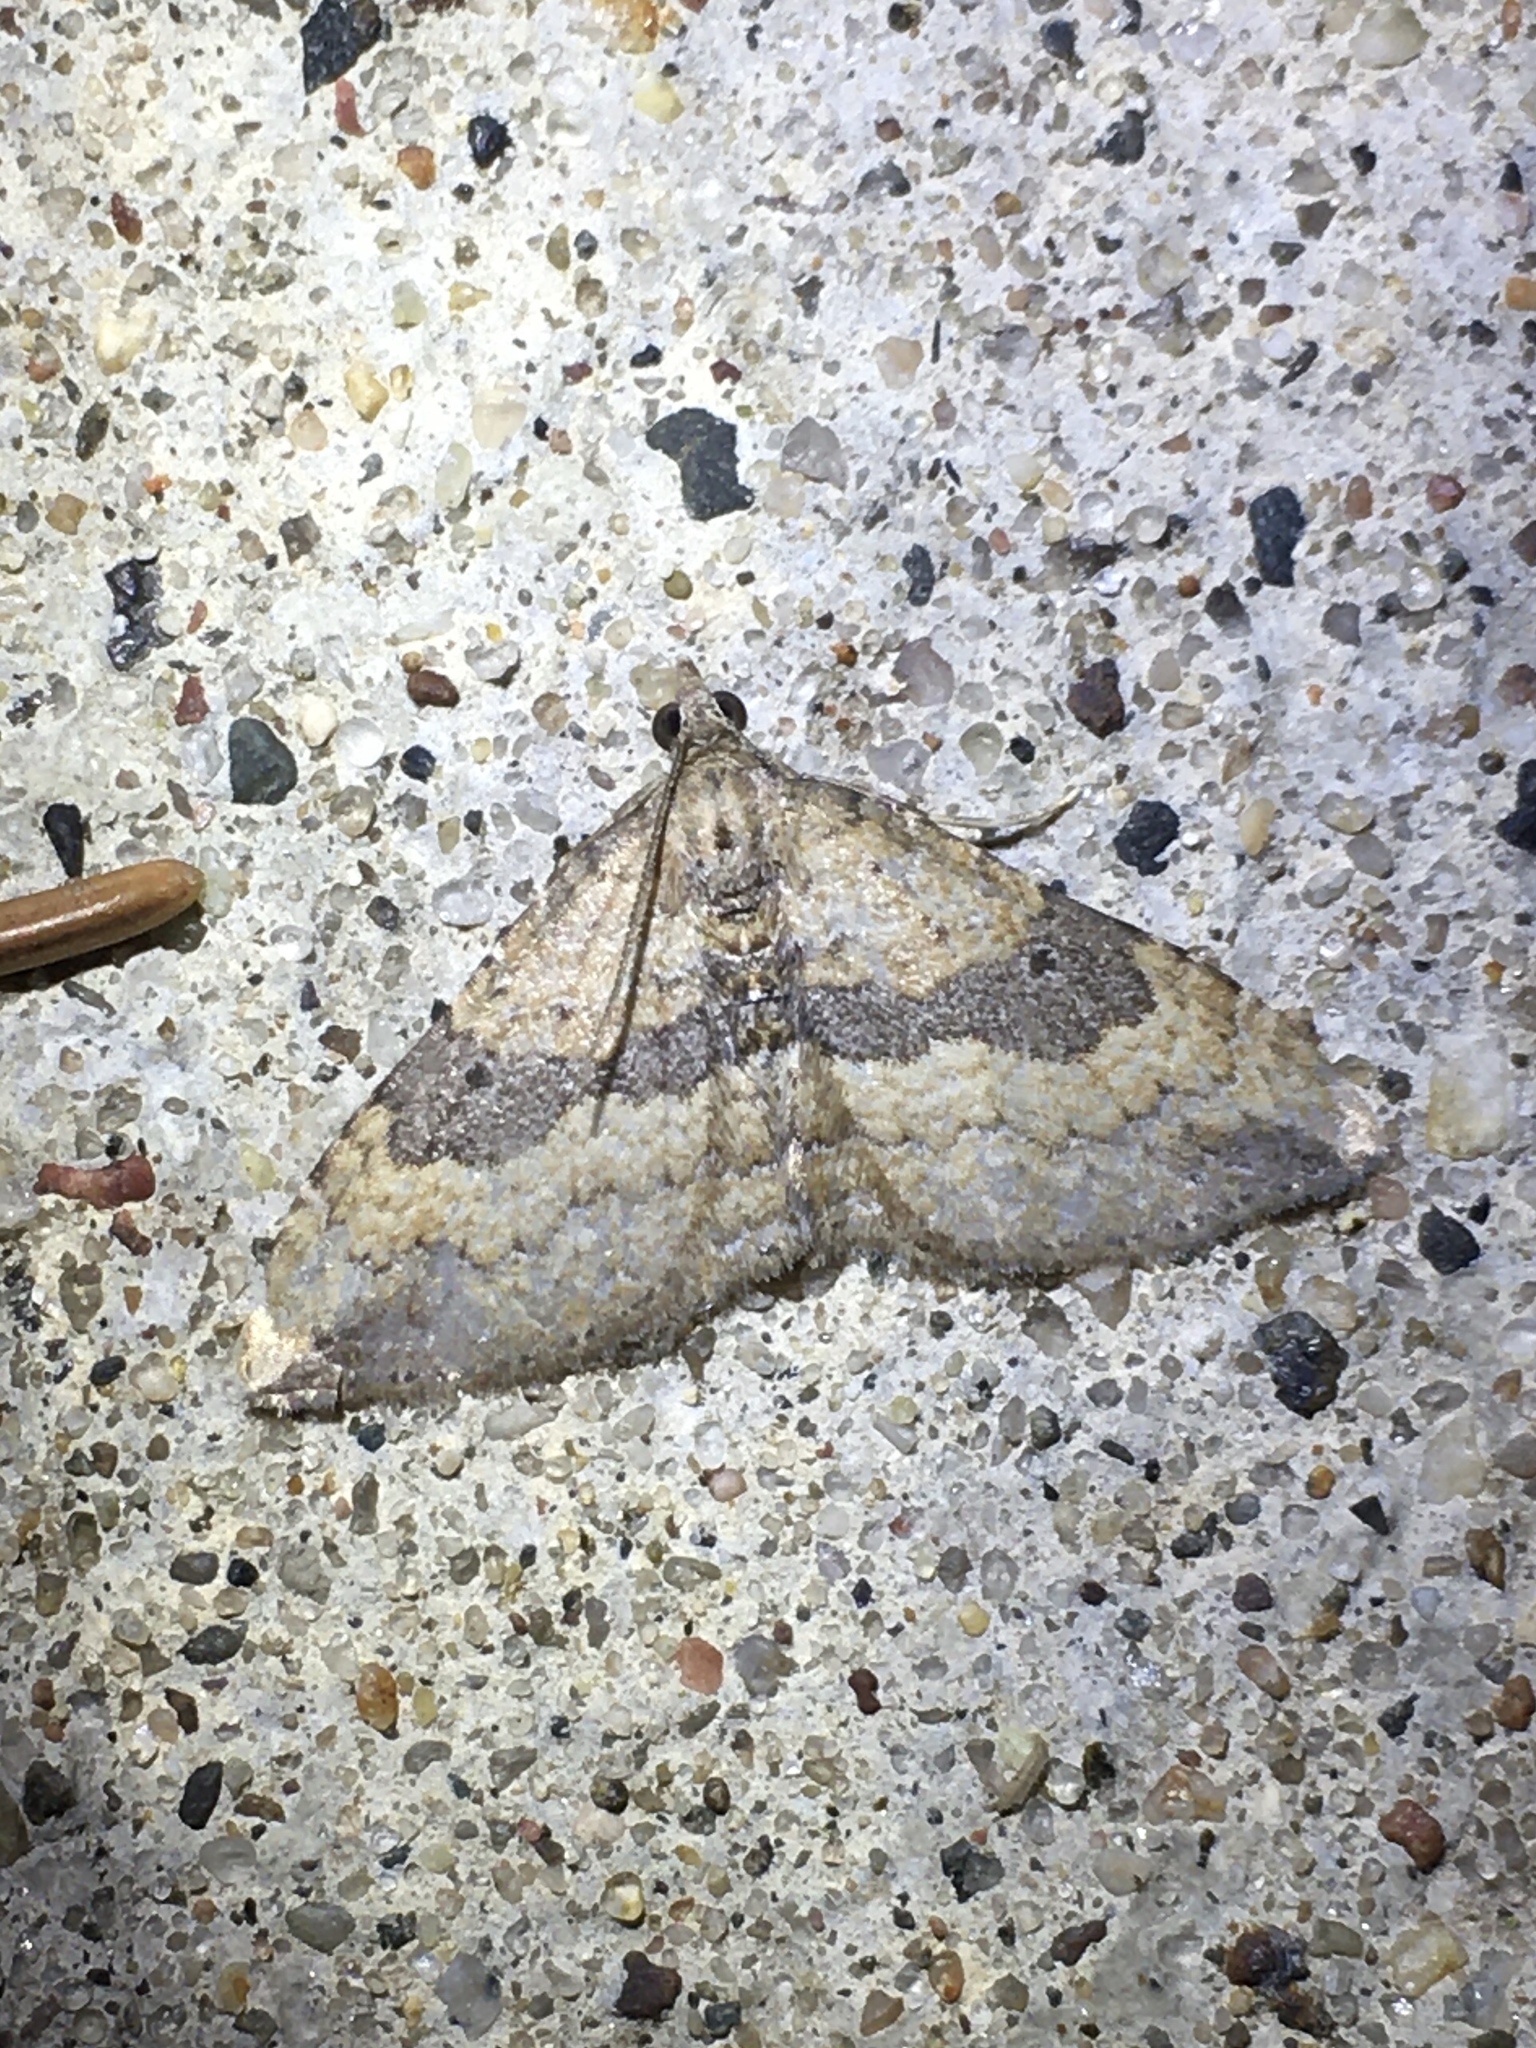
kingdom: Animalia
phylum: Arthropoda
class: Insecta
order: Lepidoptera
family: Geometridae
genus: Orthonama
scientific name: Orthonama obstipata
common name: The gem
